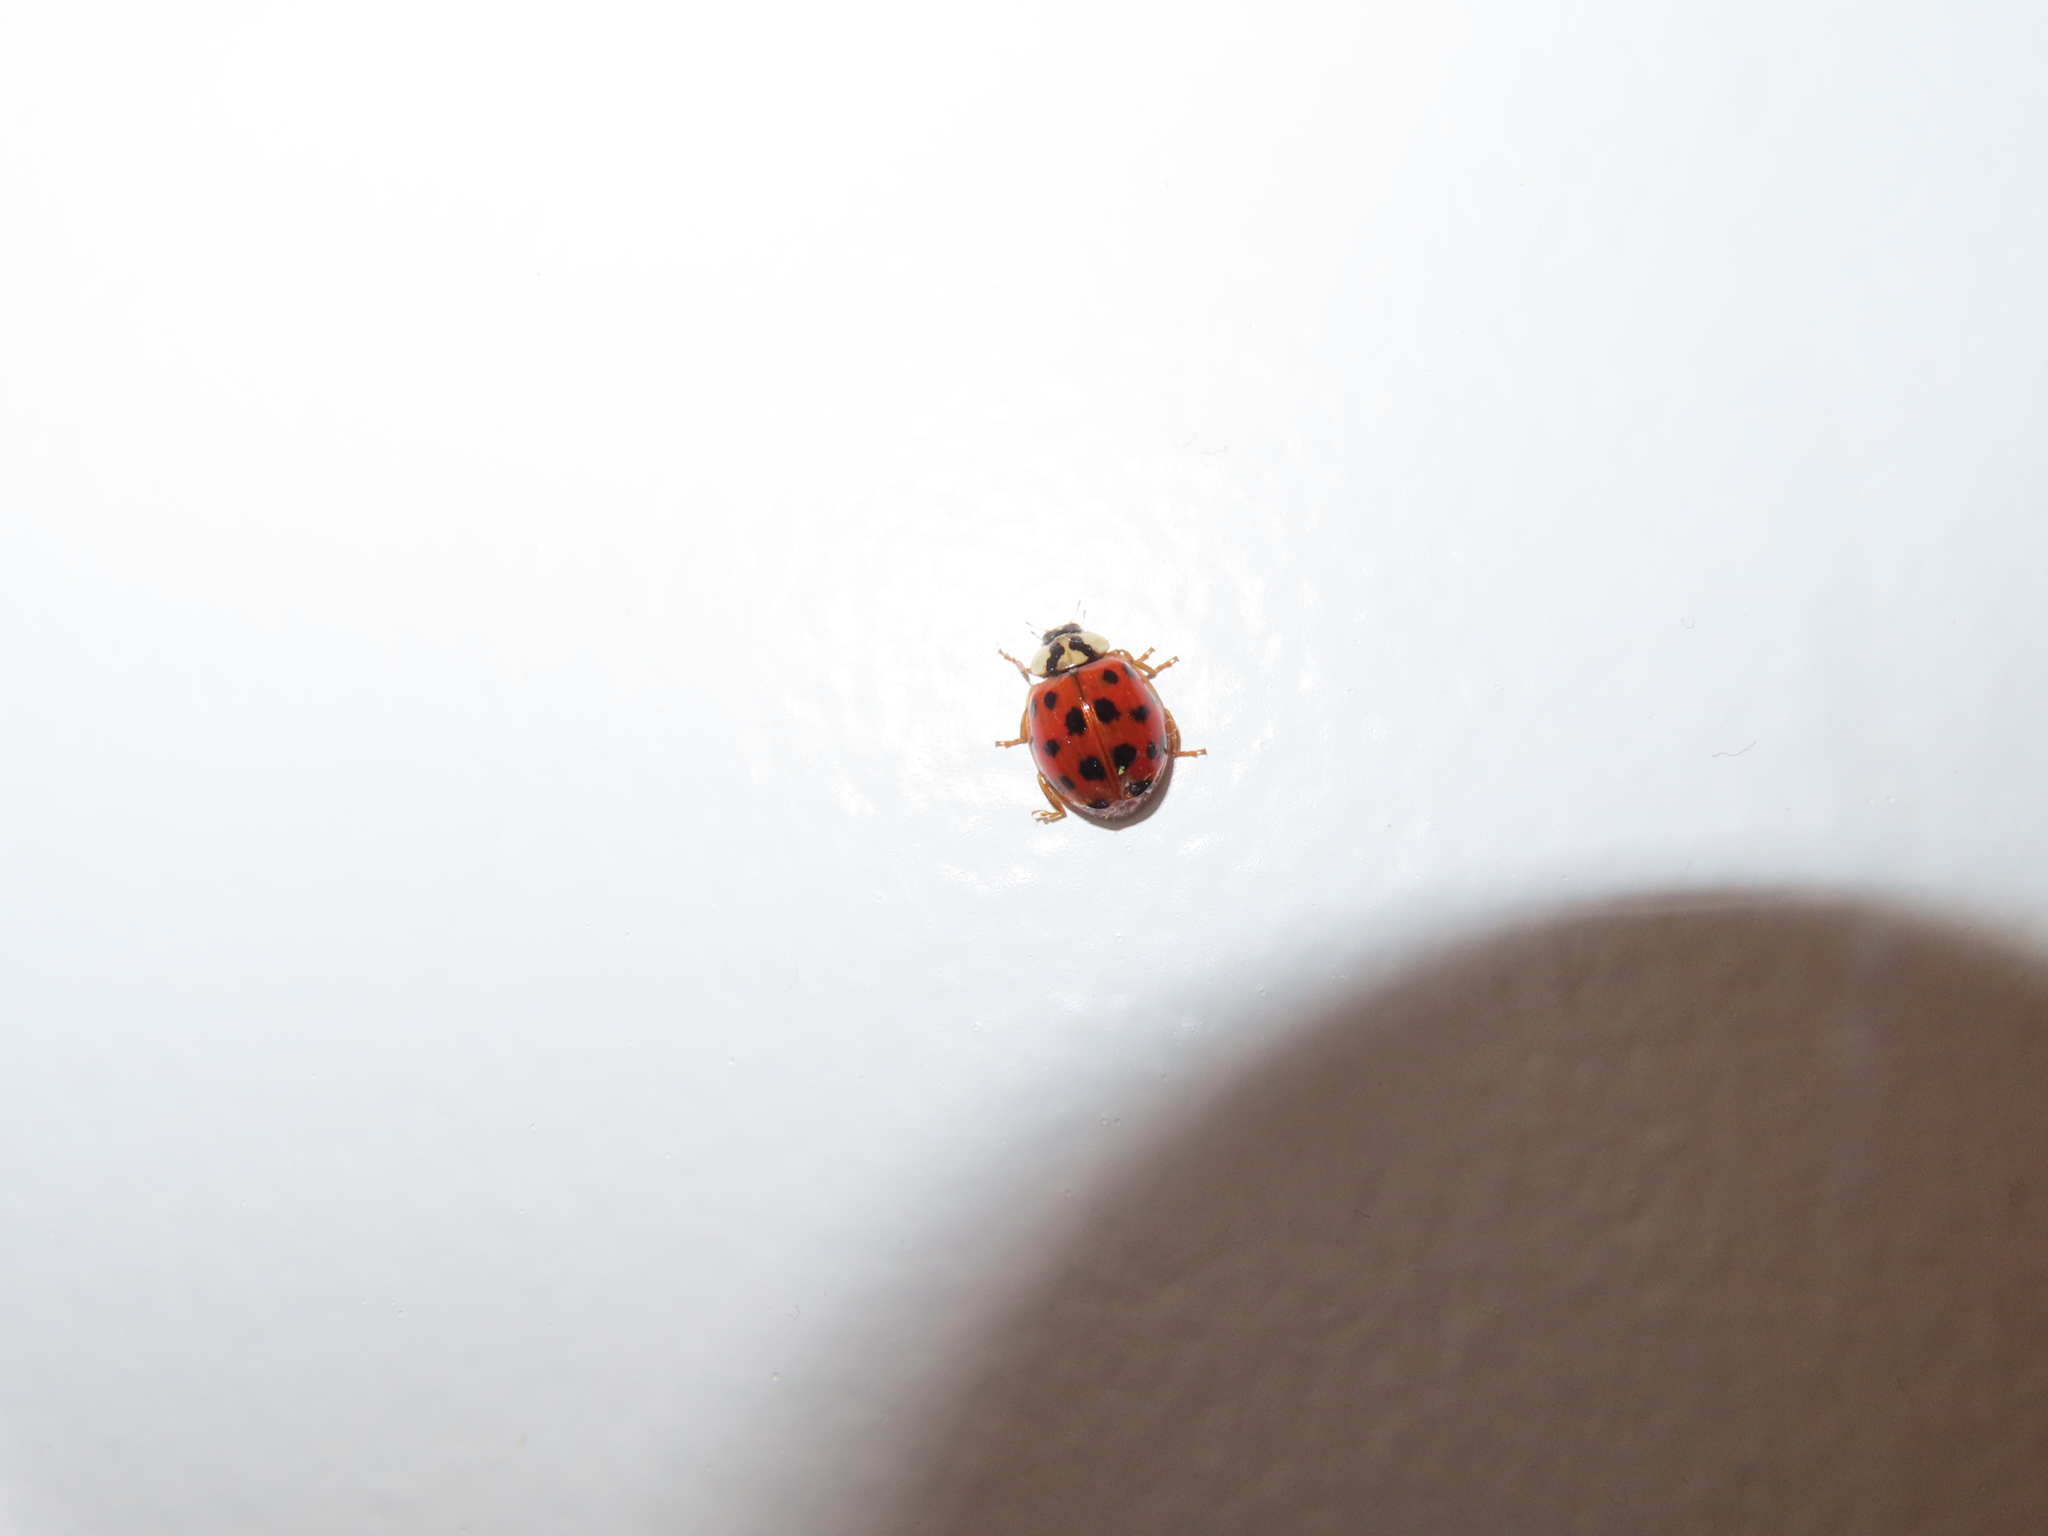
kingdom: Animalia
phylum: Arthropoda
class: Insecta
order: Coleoptera
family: Coccinellidae
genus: Harmonia
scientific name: Harmonia axyridis
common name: Harlequin ladybird
